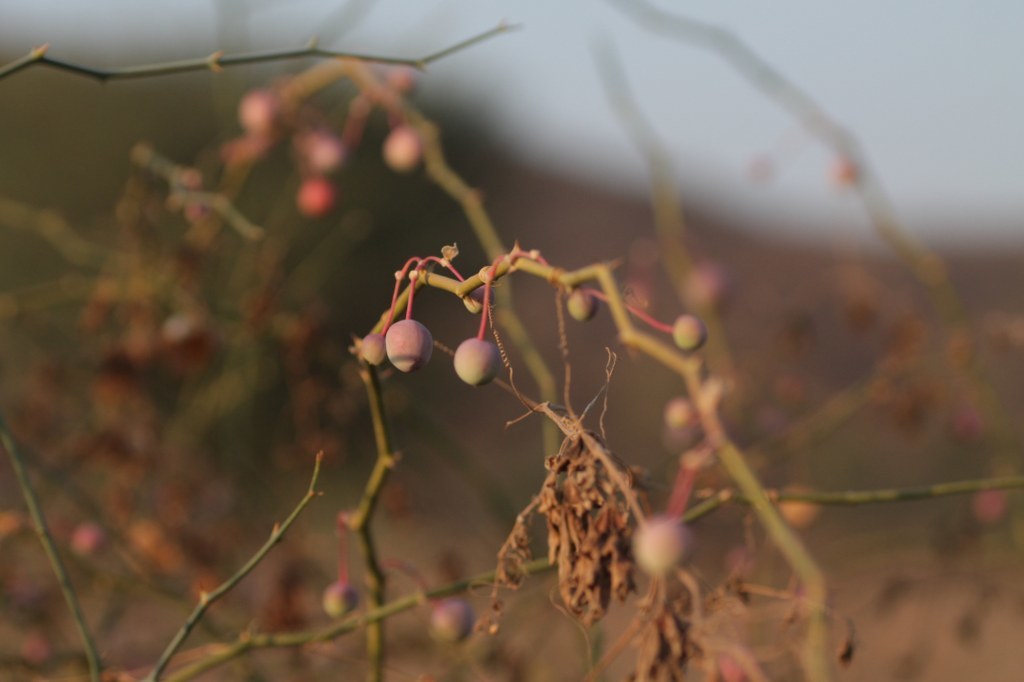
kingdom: Plantae
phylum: Tracheophyta
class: Magnoliopsida
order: Brassicales
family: Capparaceae
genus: Capparis
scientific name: Capparis decidua
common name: Sodada
